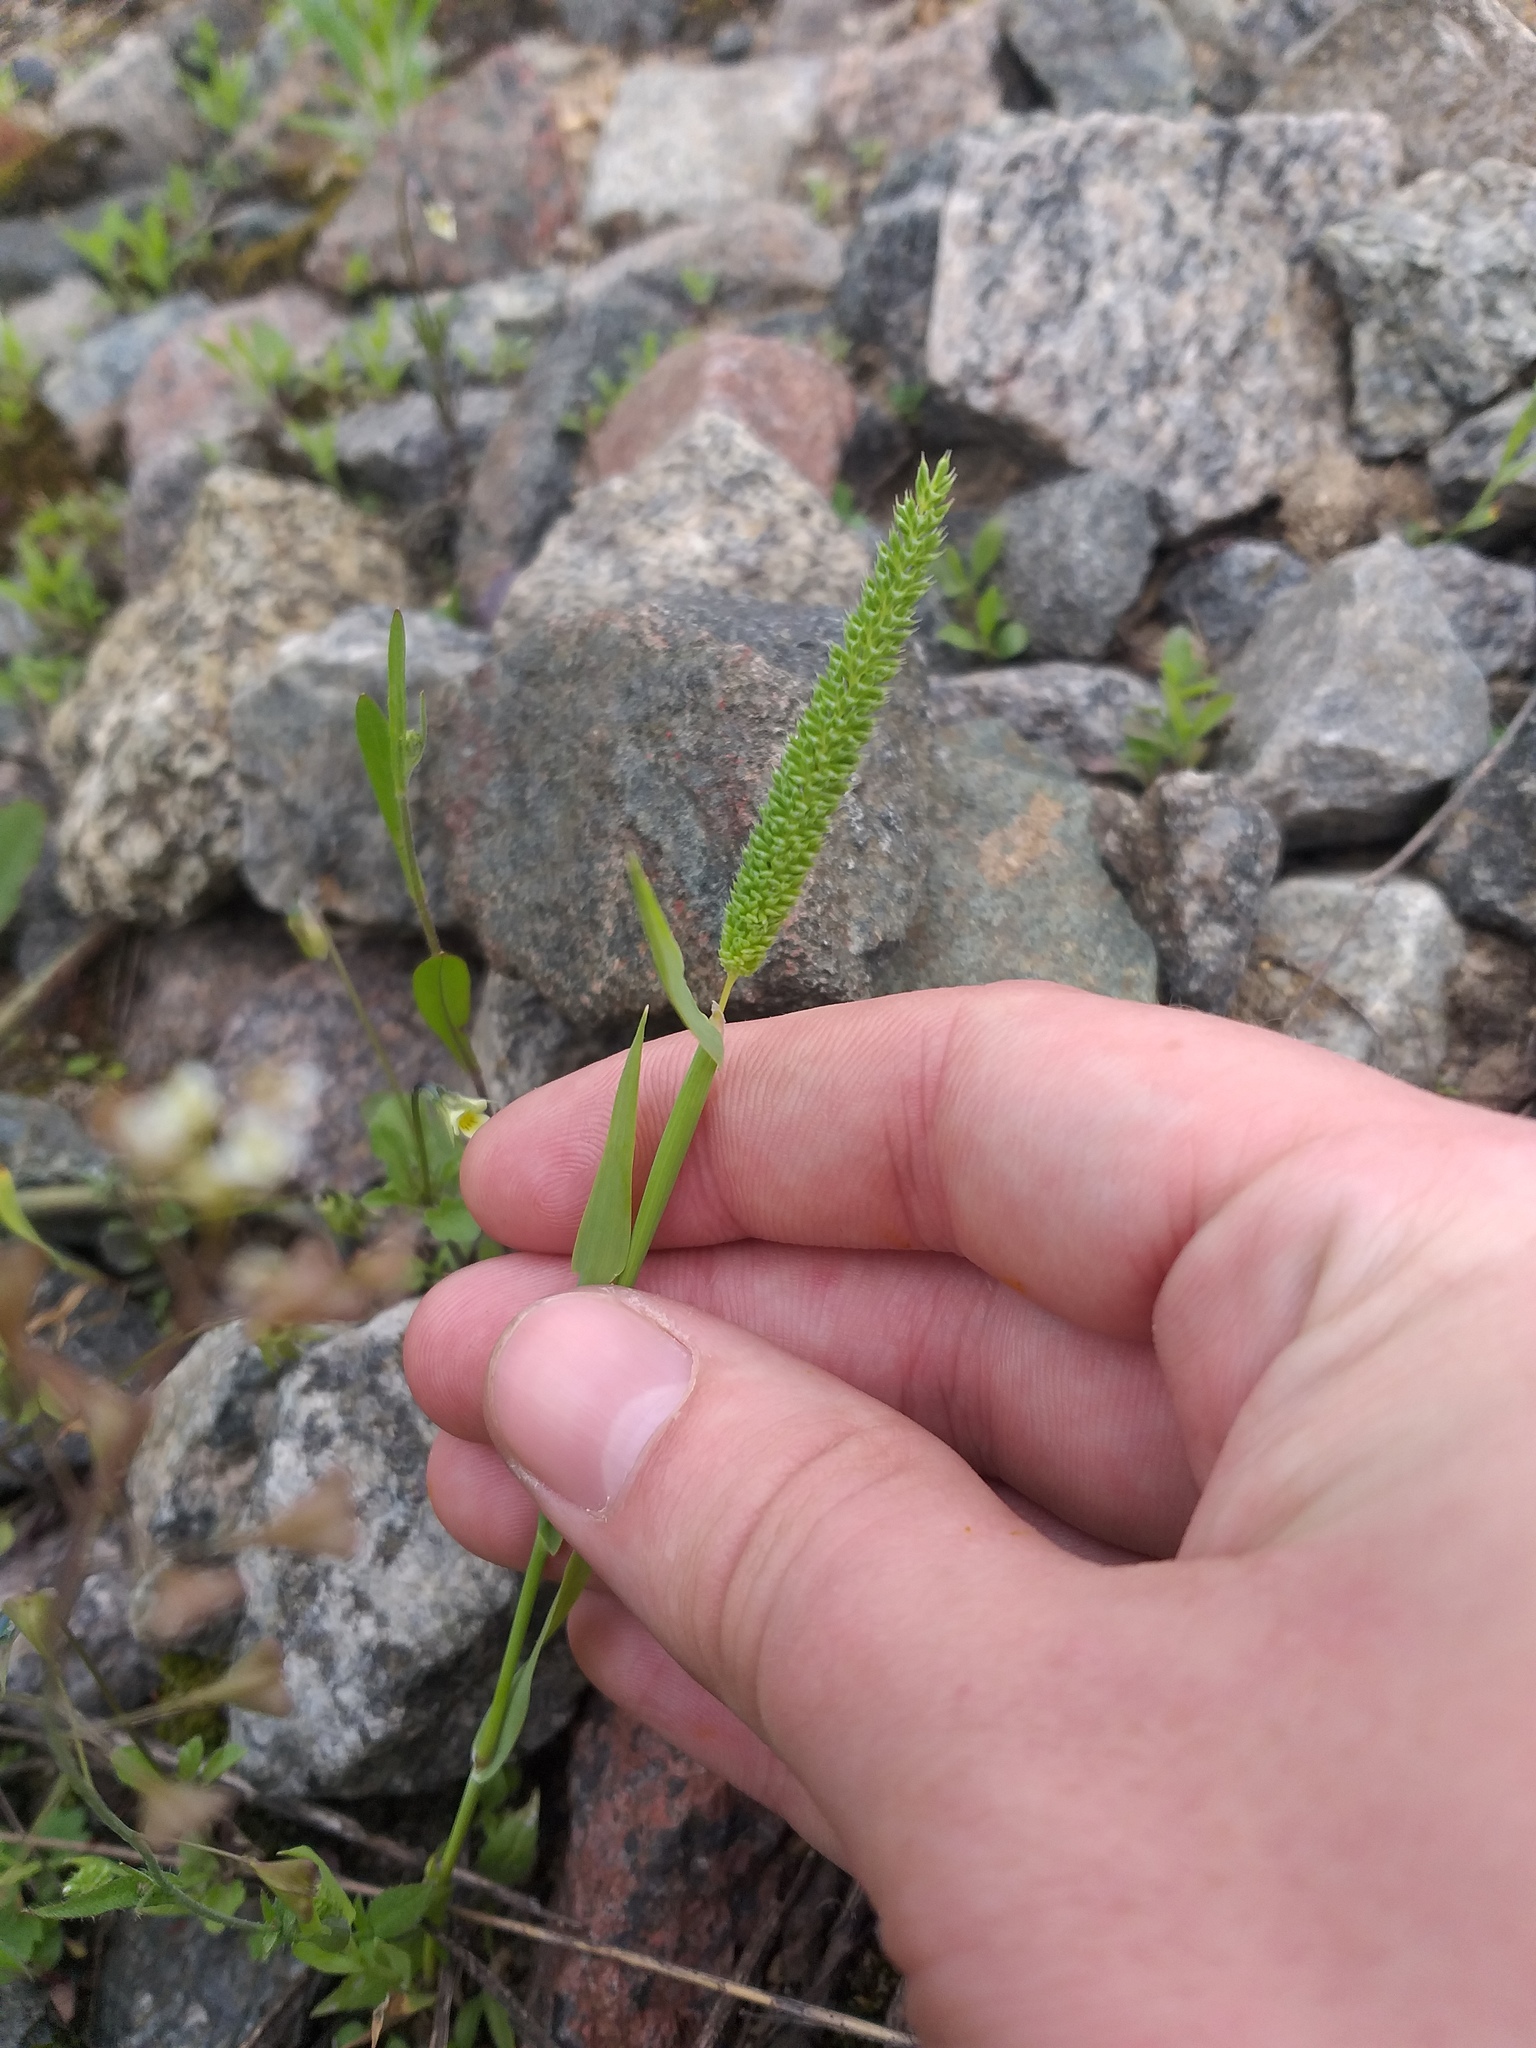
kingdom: Plantae
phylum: Tracheophyta
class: Liliopsida
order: Poales
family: Poaceae
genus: Phleum
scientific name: Phleum paniculatum
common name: British timothy
